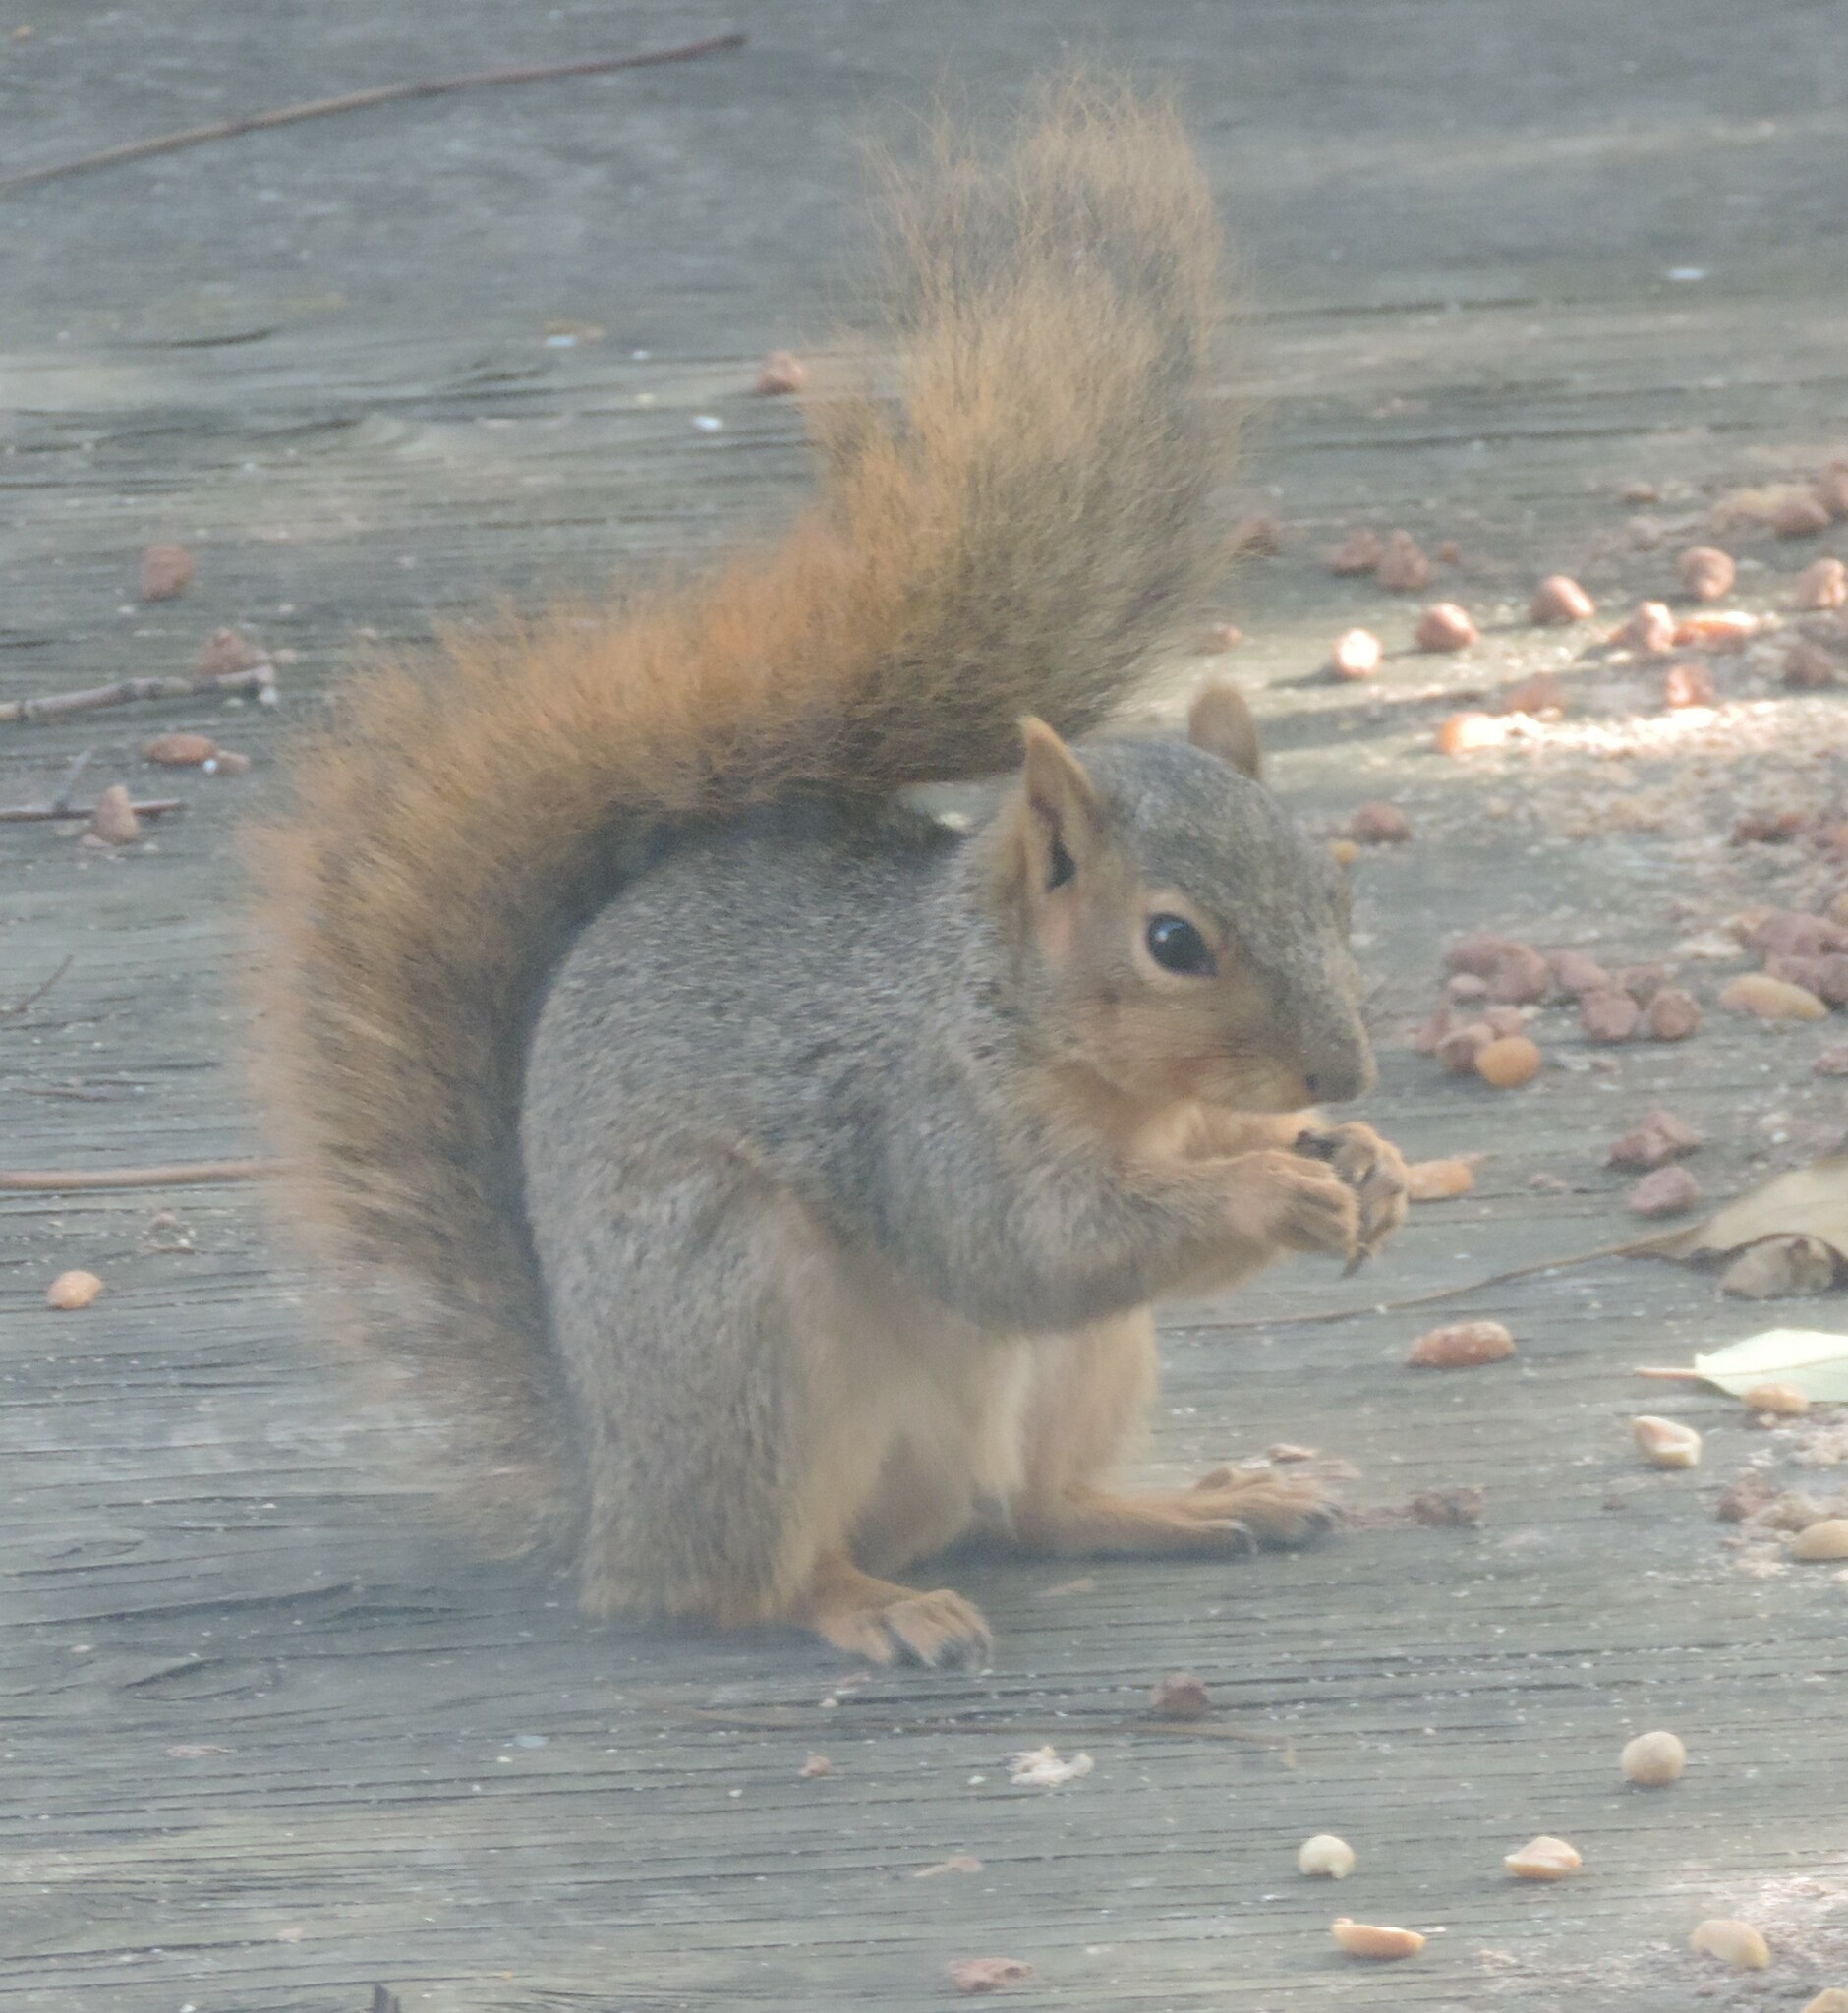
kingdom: Animalia
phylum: Chordata
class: Mammalia
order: Rodentia
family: Sciuridae
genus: Sciurus
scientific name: Sciurus niger
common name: Fox squirrel
